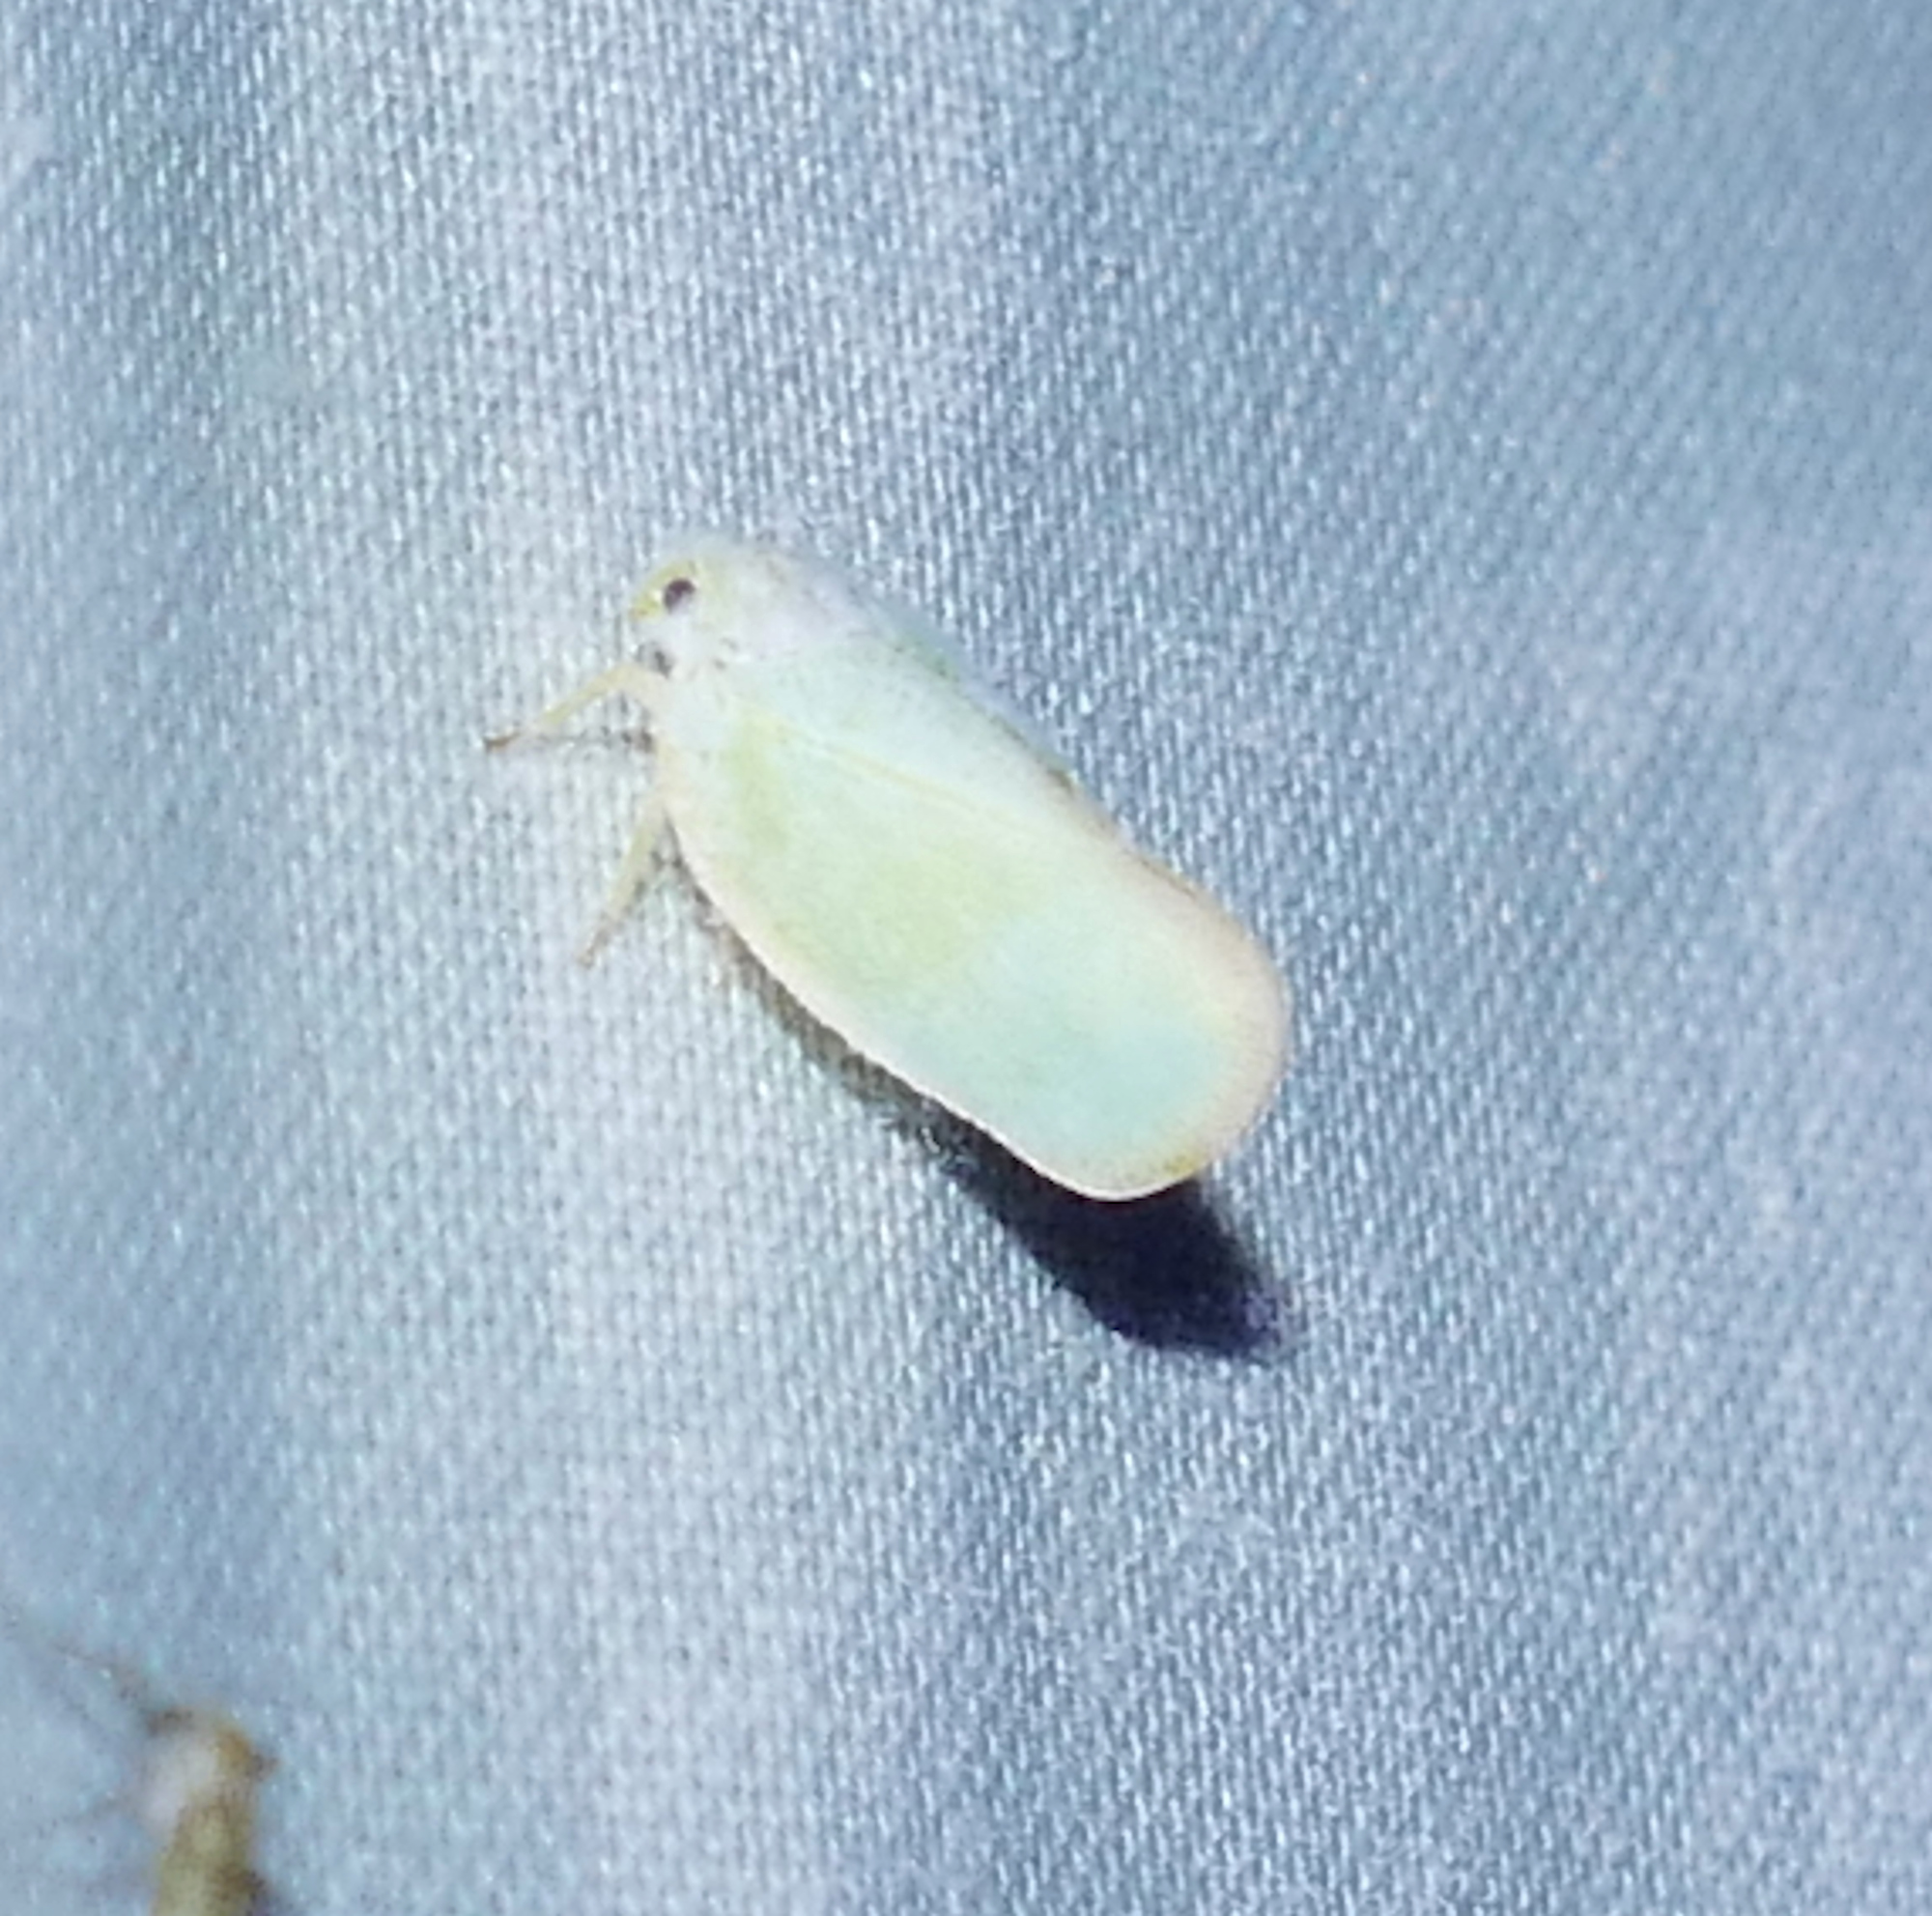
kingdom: Animalia
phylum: Arthropoda
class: Insecta
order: Hemiptera
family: Flatidae
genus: Ormenoides
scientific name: Ormenoides venusta
